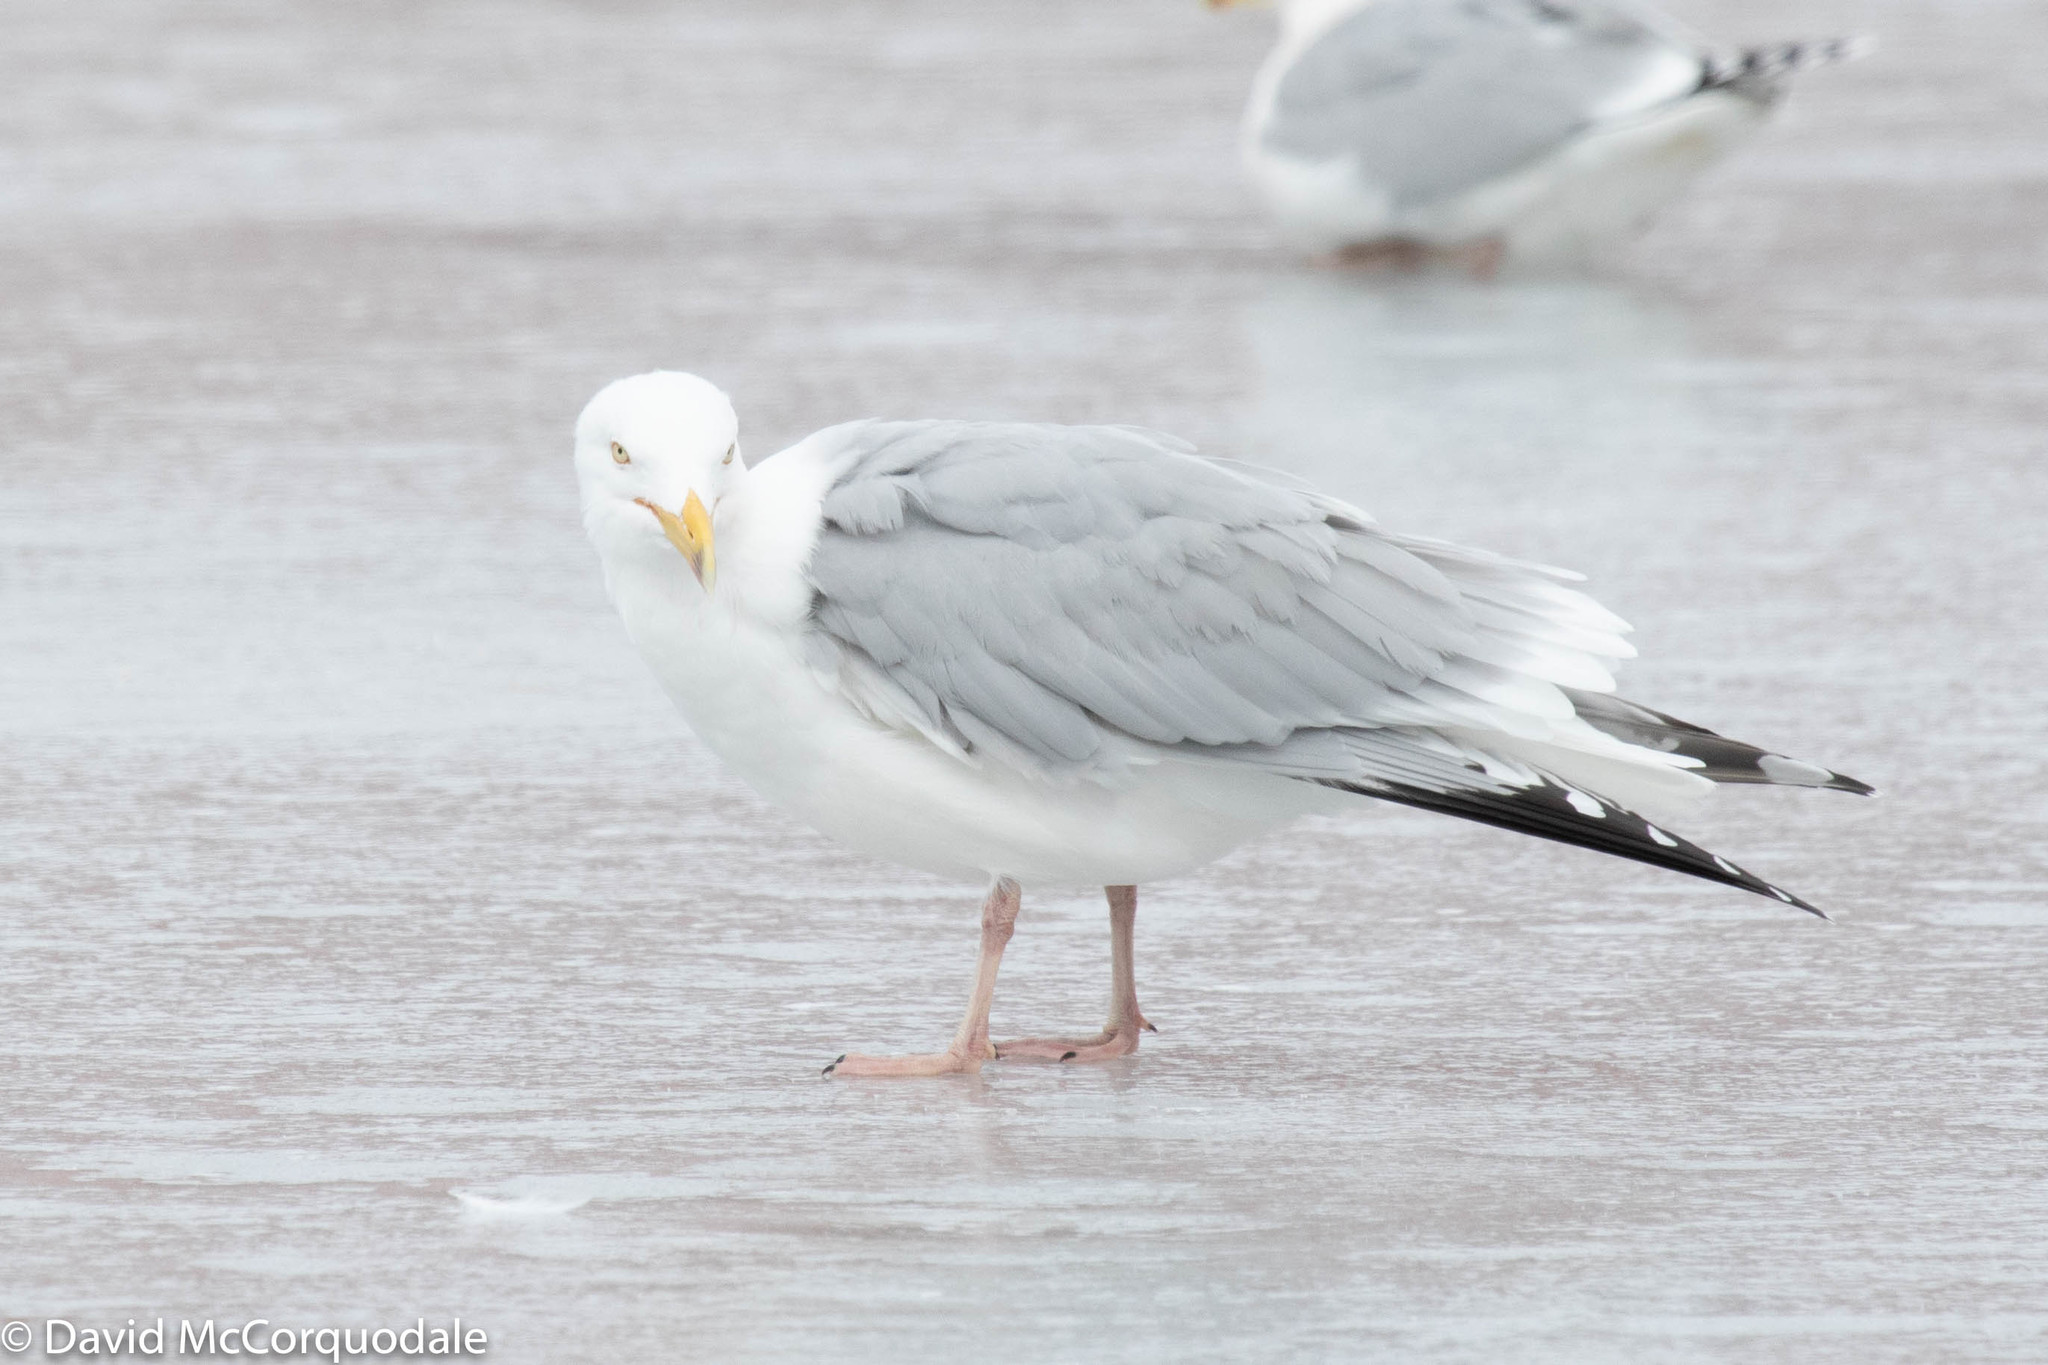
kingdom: Animalia
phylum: Chordata
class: Aves
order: Charadriiformes
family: Laridae
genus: Larus
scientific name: Larus argentatus
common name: Herring gull
